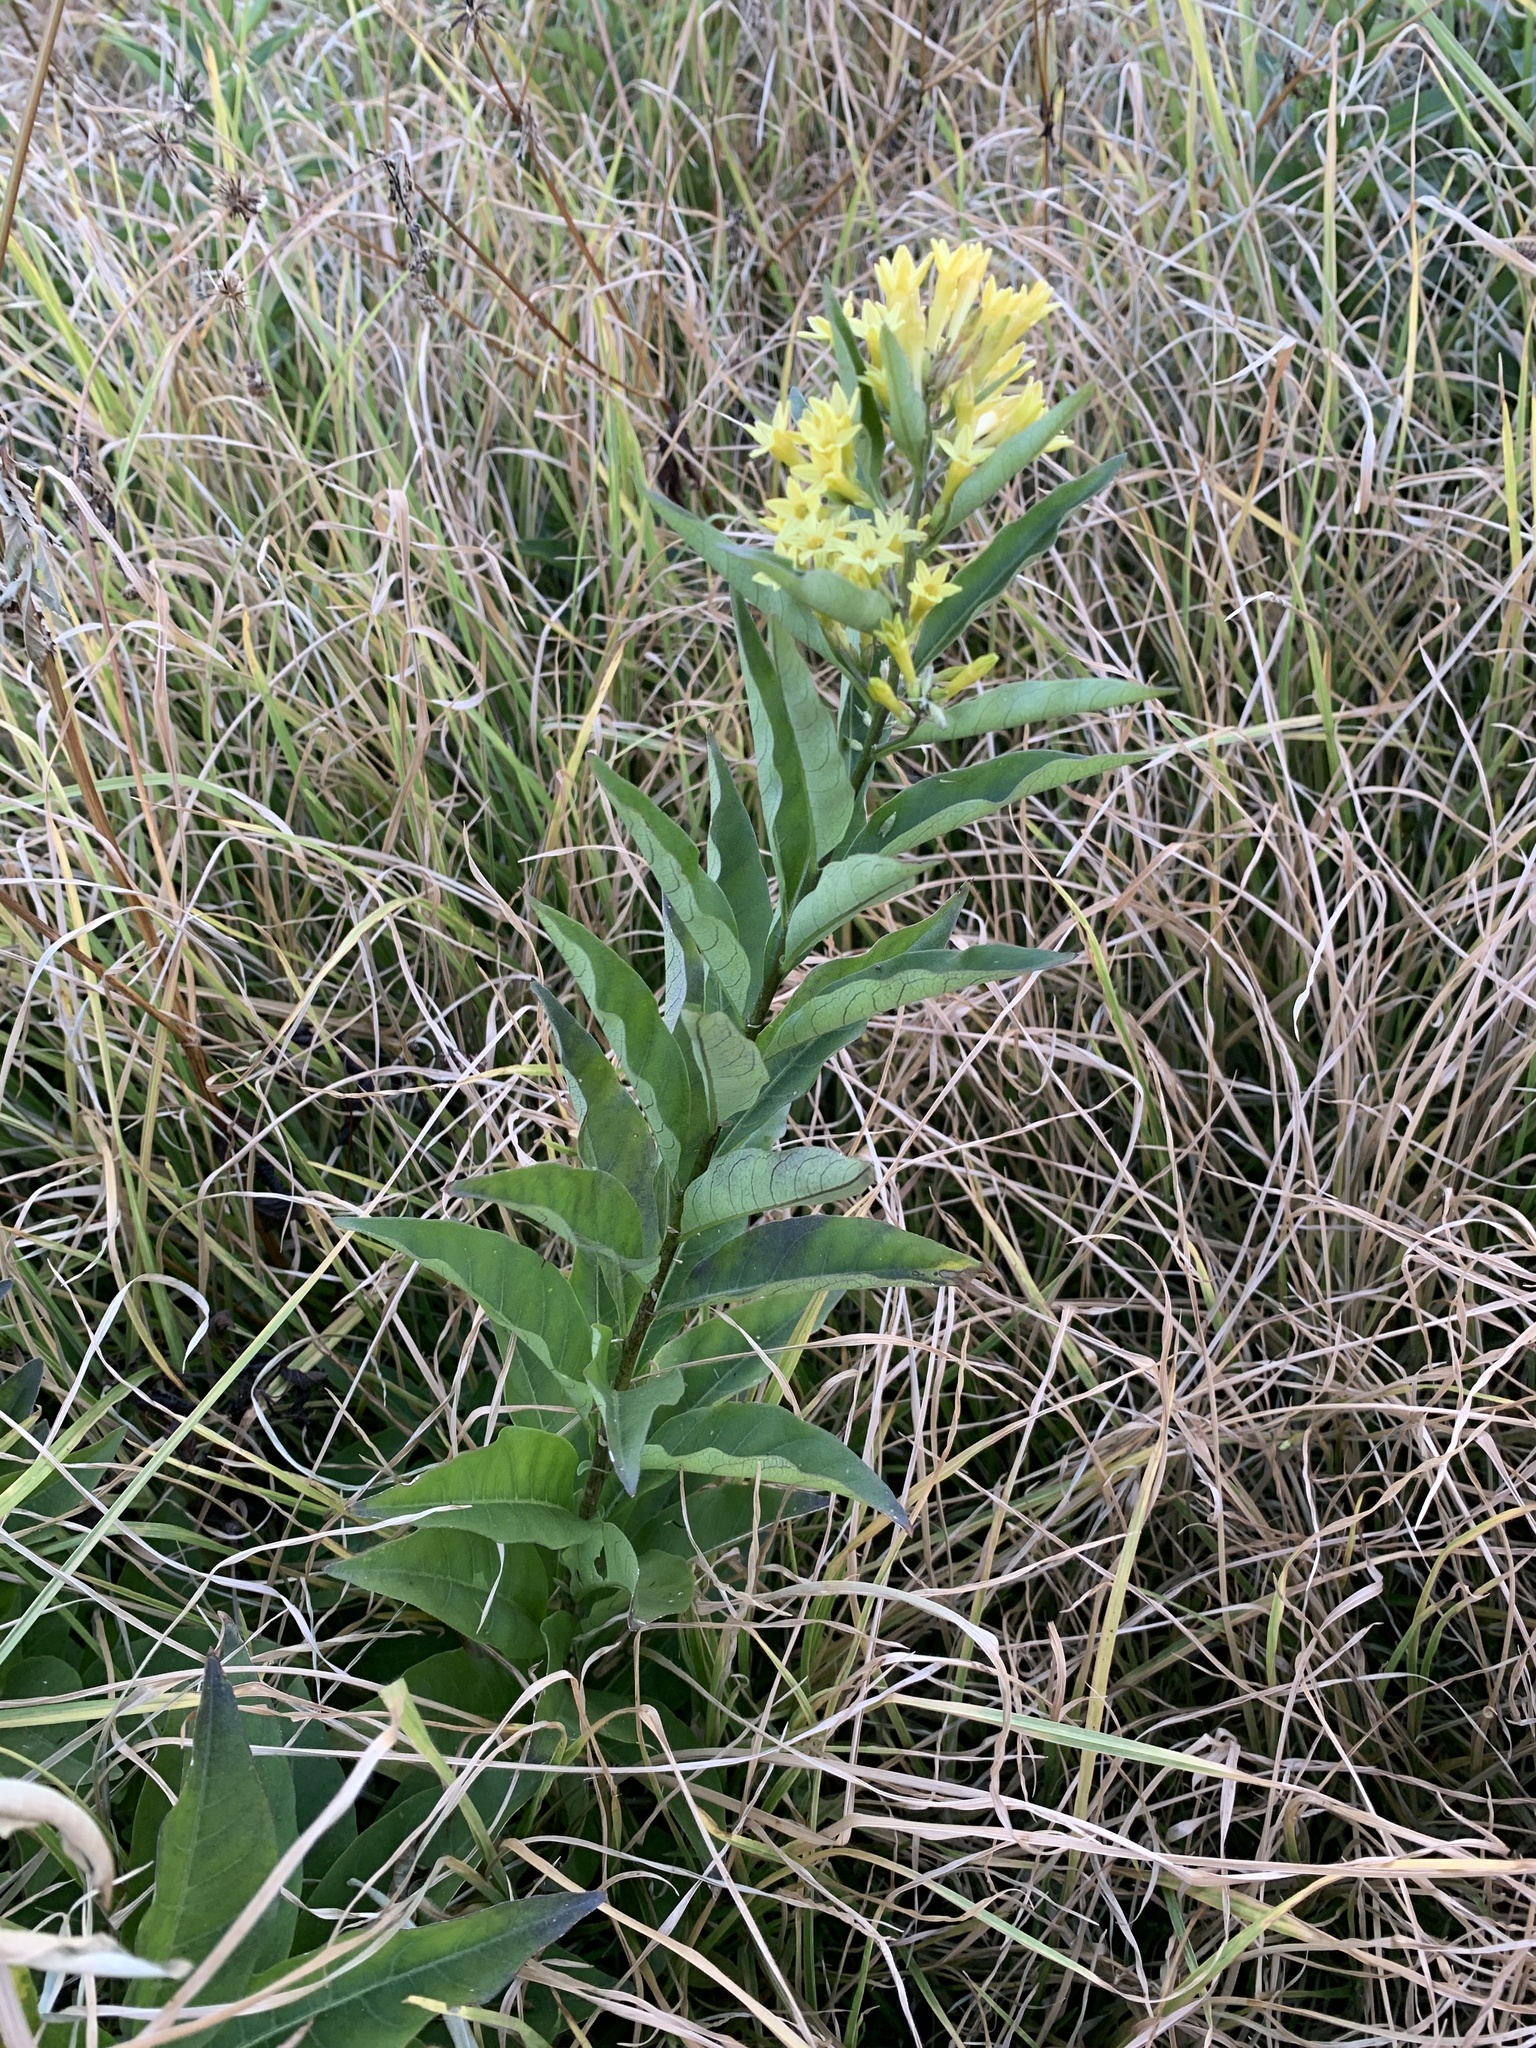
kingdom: Plantae
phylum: Tracheophyta
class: Magnoliopsida
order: Solanales
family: Solanaceae
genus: Cestrum
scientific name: Cestrum parqui
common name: Chilean cestrum
